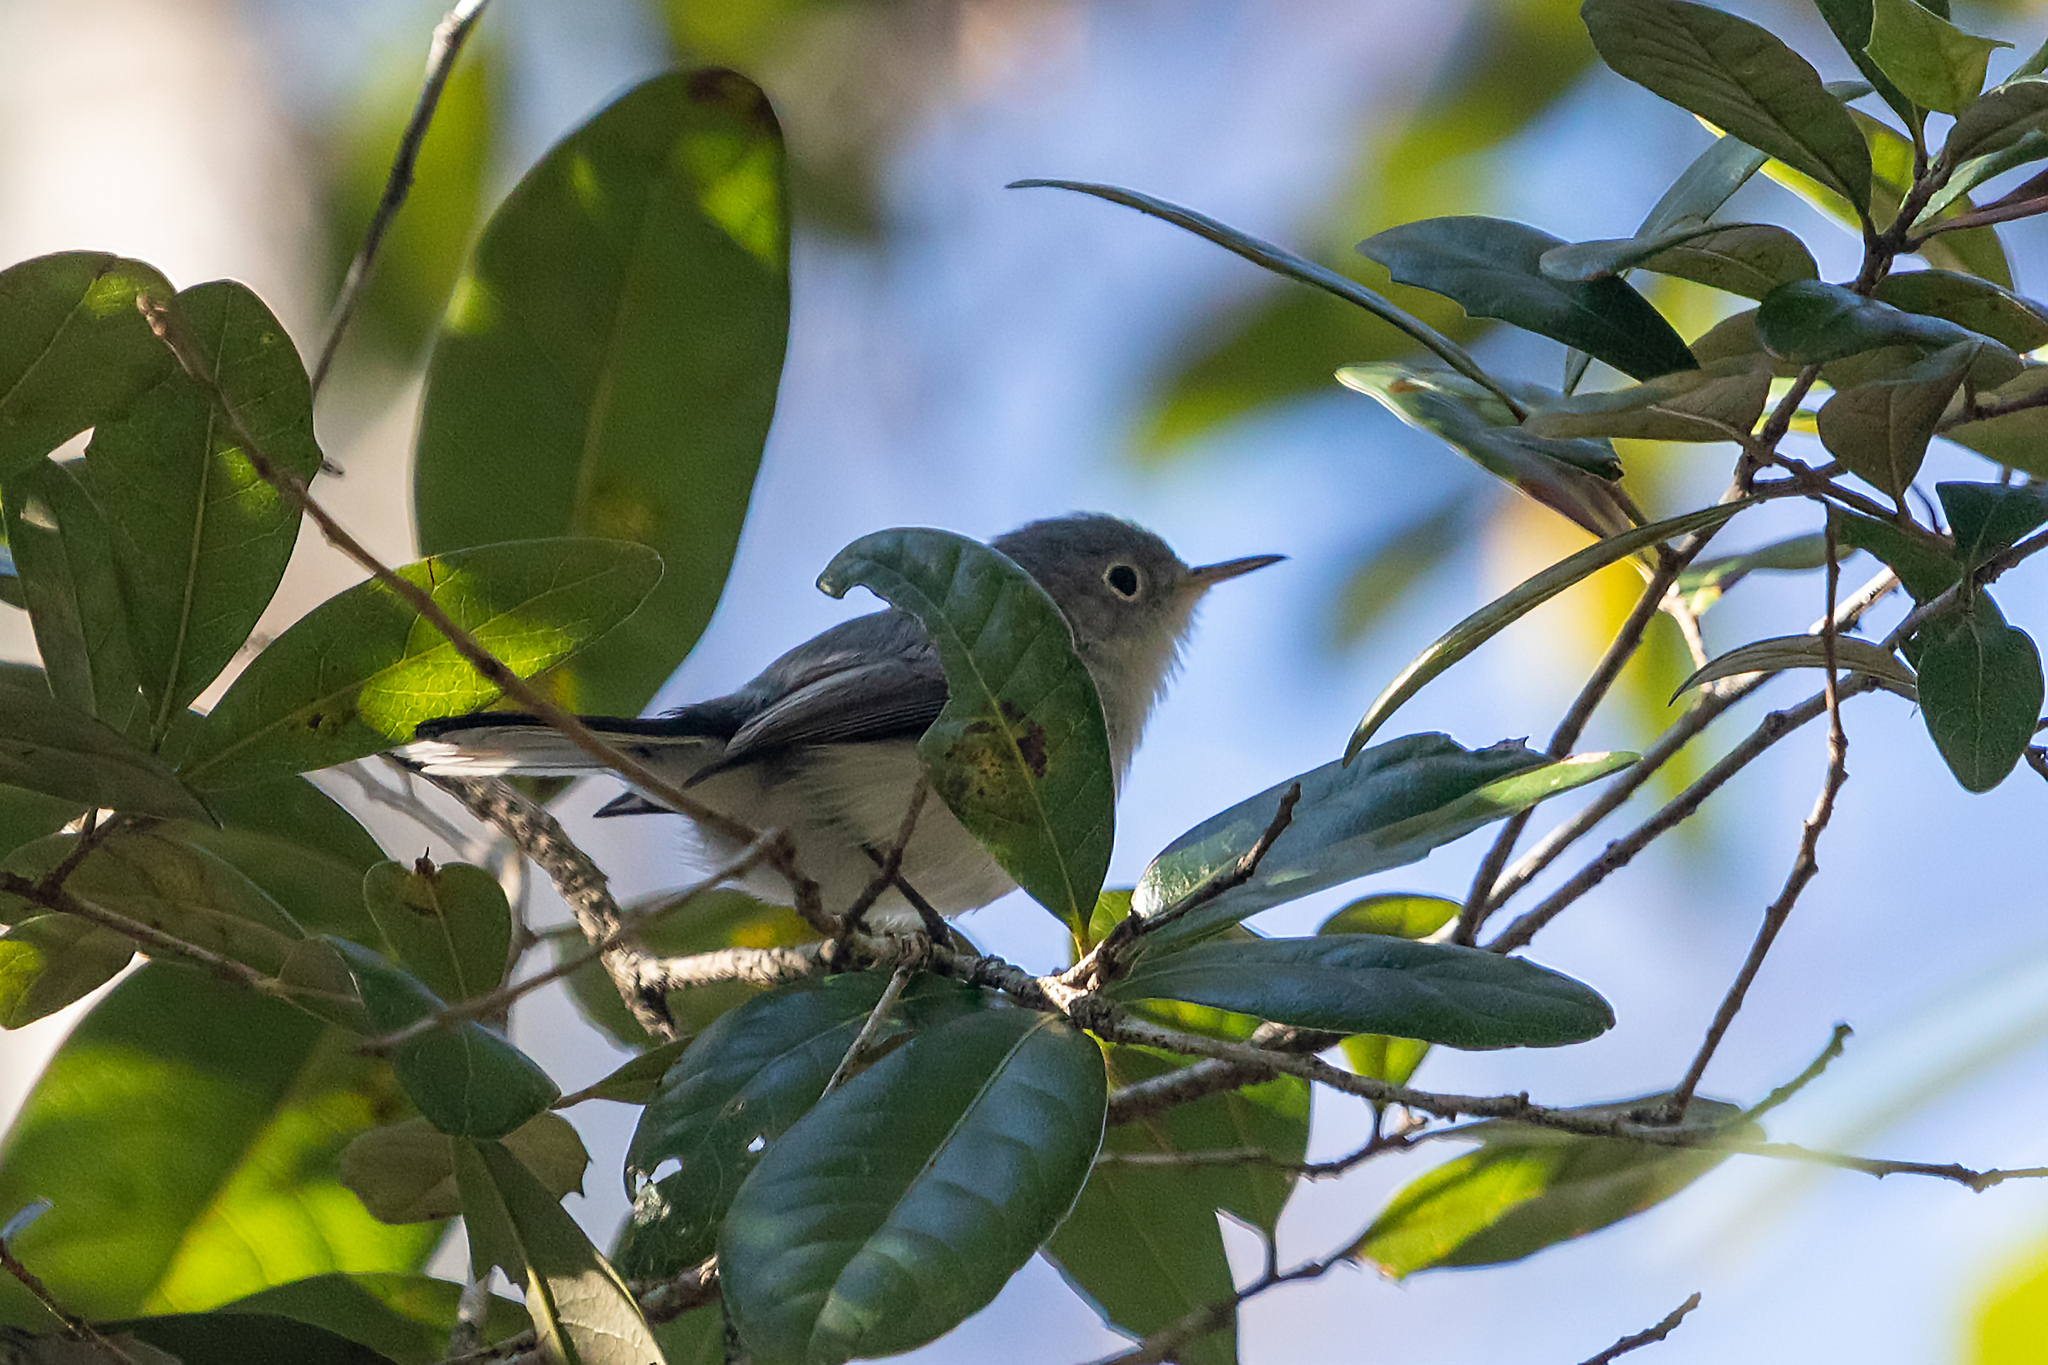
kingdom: Animalia
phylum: Chordata
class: Aves
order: Passeriformes
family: Polioptilidae
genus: Polioptila
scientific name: Polioptila caerulea
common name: Blue-gray gnatcatcher
